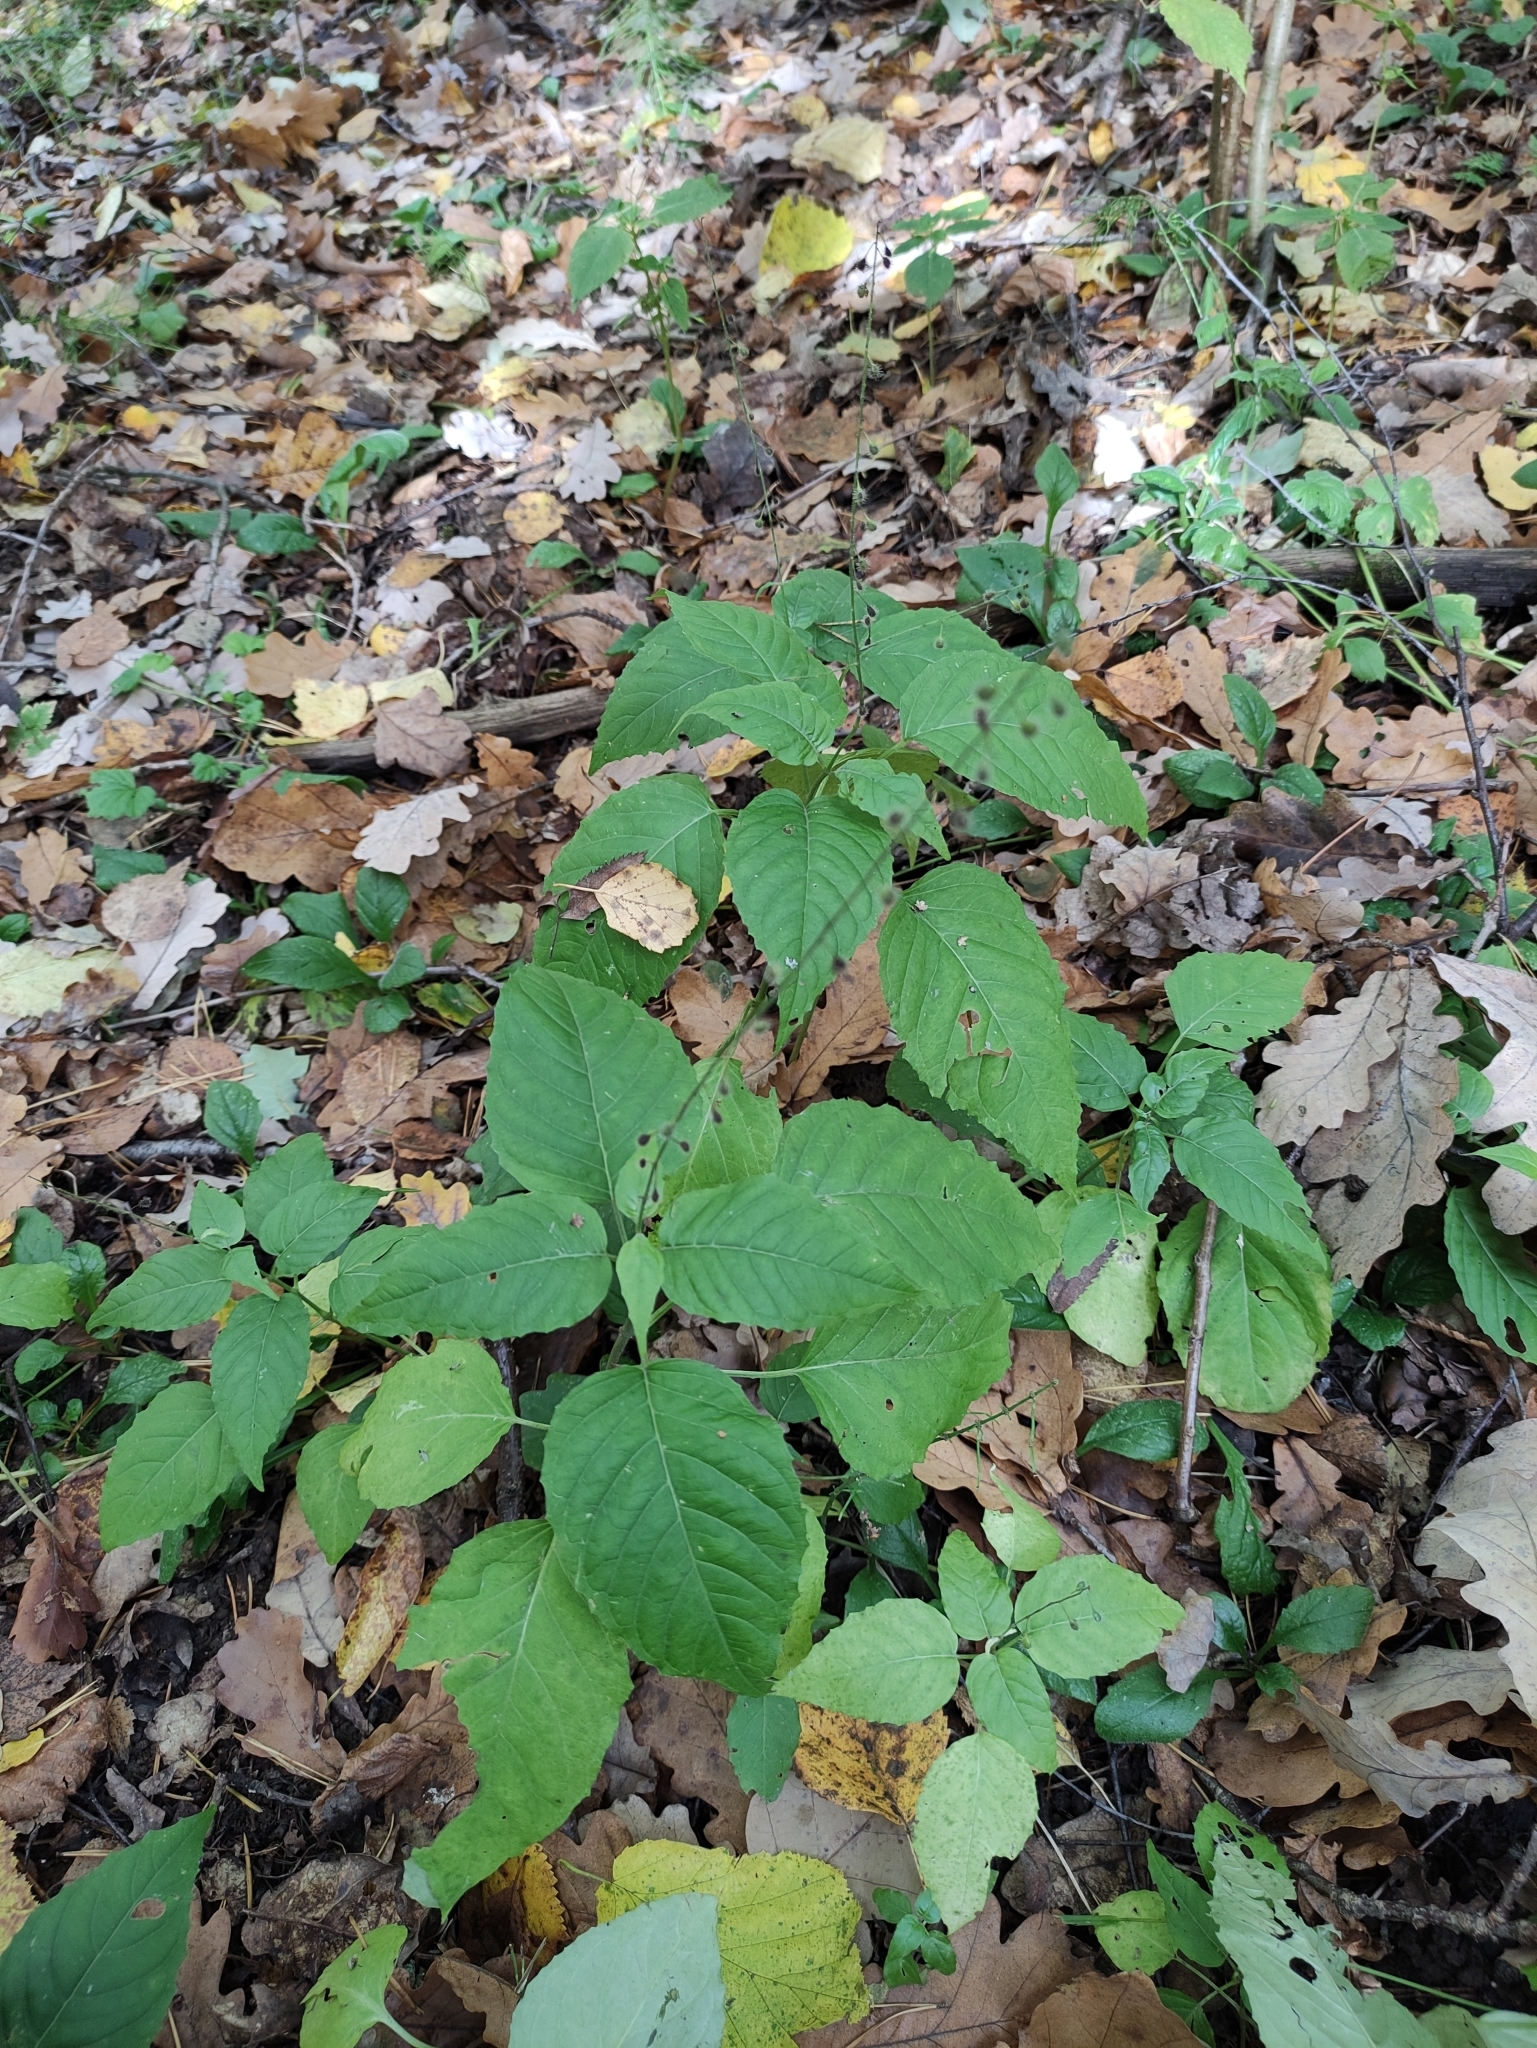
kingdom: Plantae
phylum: Tracheophyta
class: Magnoliopsida
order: Myrtales
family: Onagraceae
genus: Circaea
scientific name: Circaea lutetiana
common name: Enchanter's-nightshade
